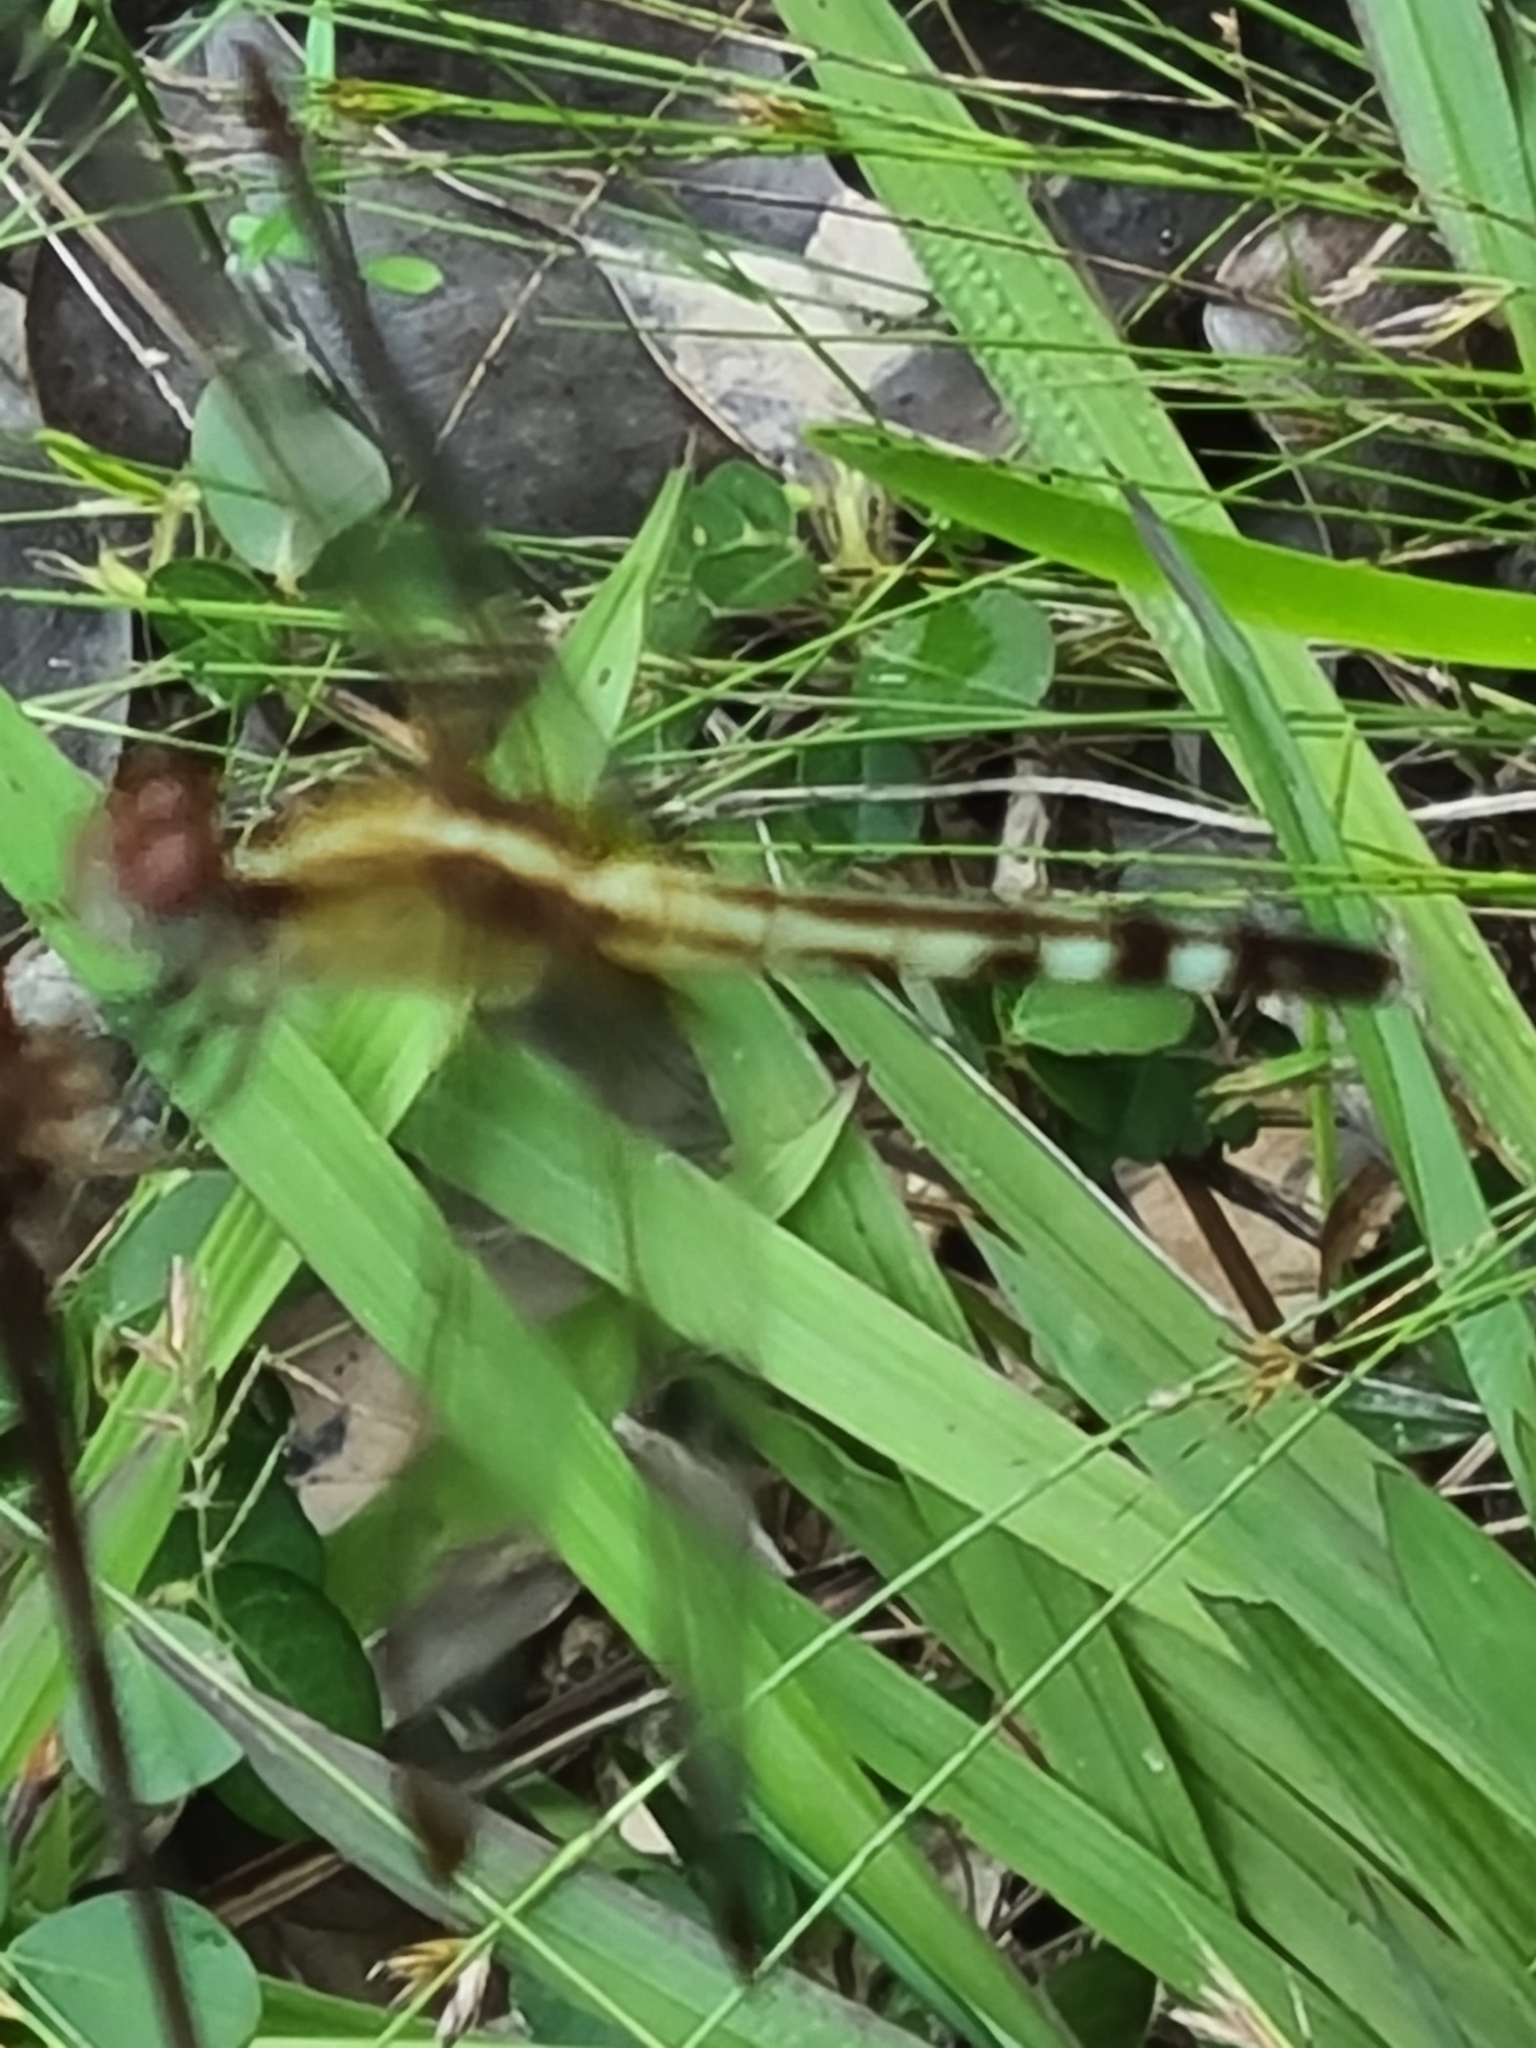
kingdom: Animalia
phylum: Arthropoda
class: Insecta
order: Odonata
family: Libellulidae
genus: Erythrodiplax
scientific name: Erythrodiplax umbrata
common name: Band-winged dragonlet
